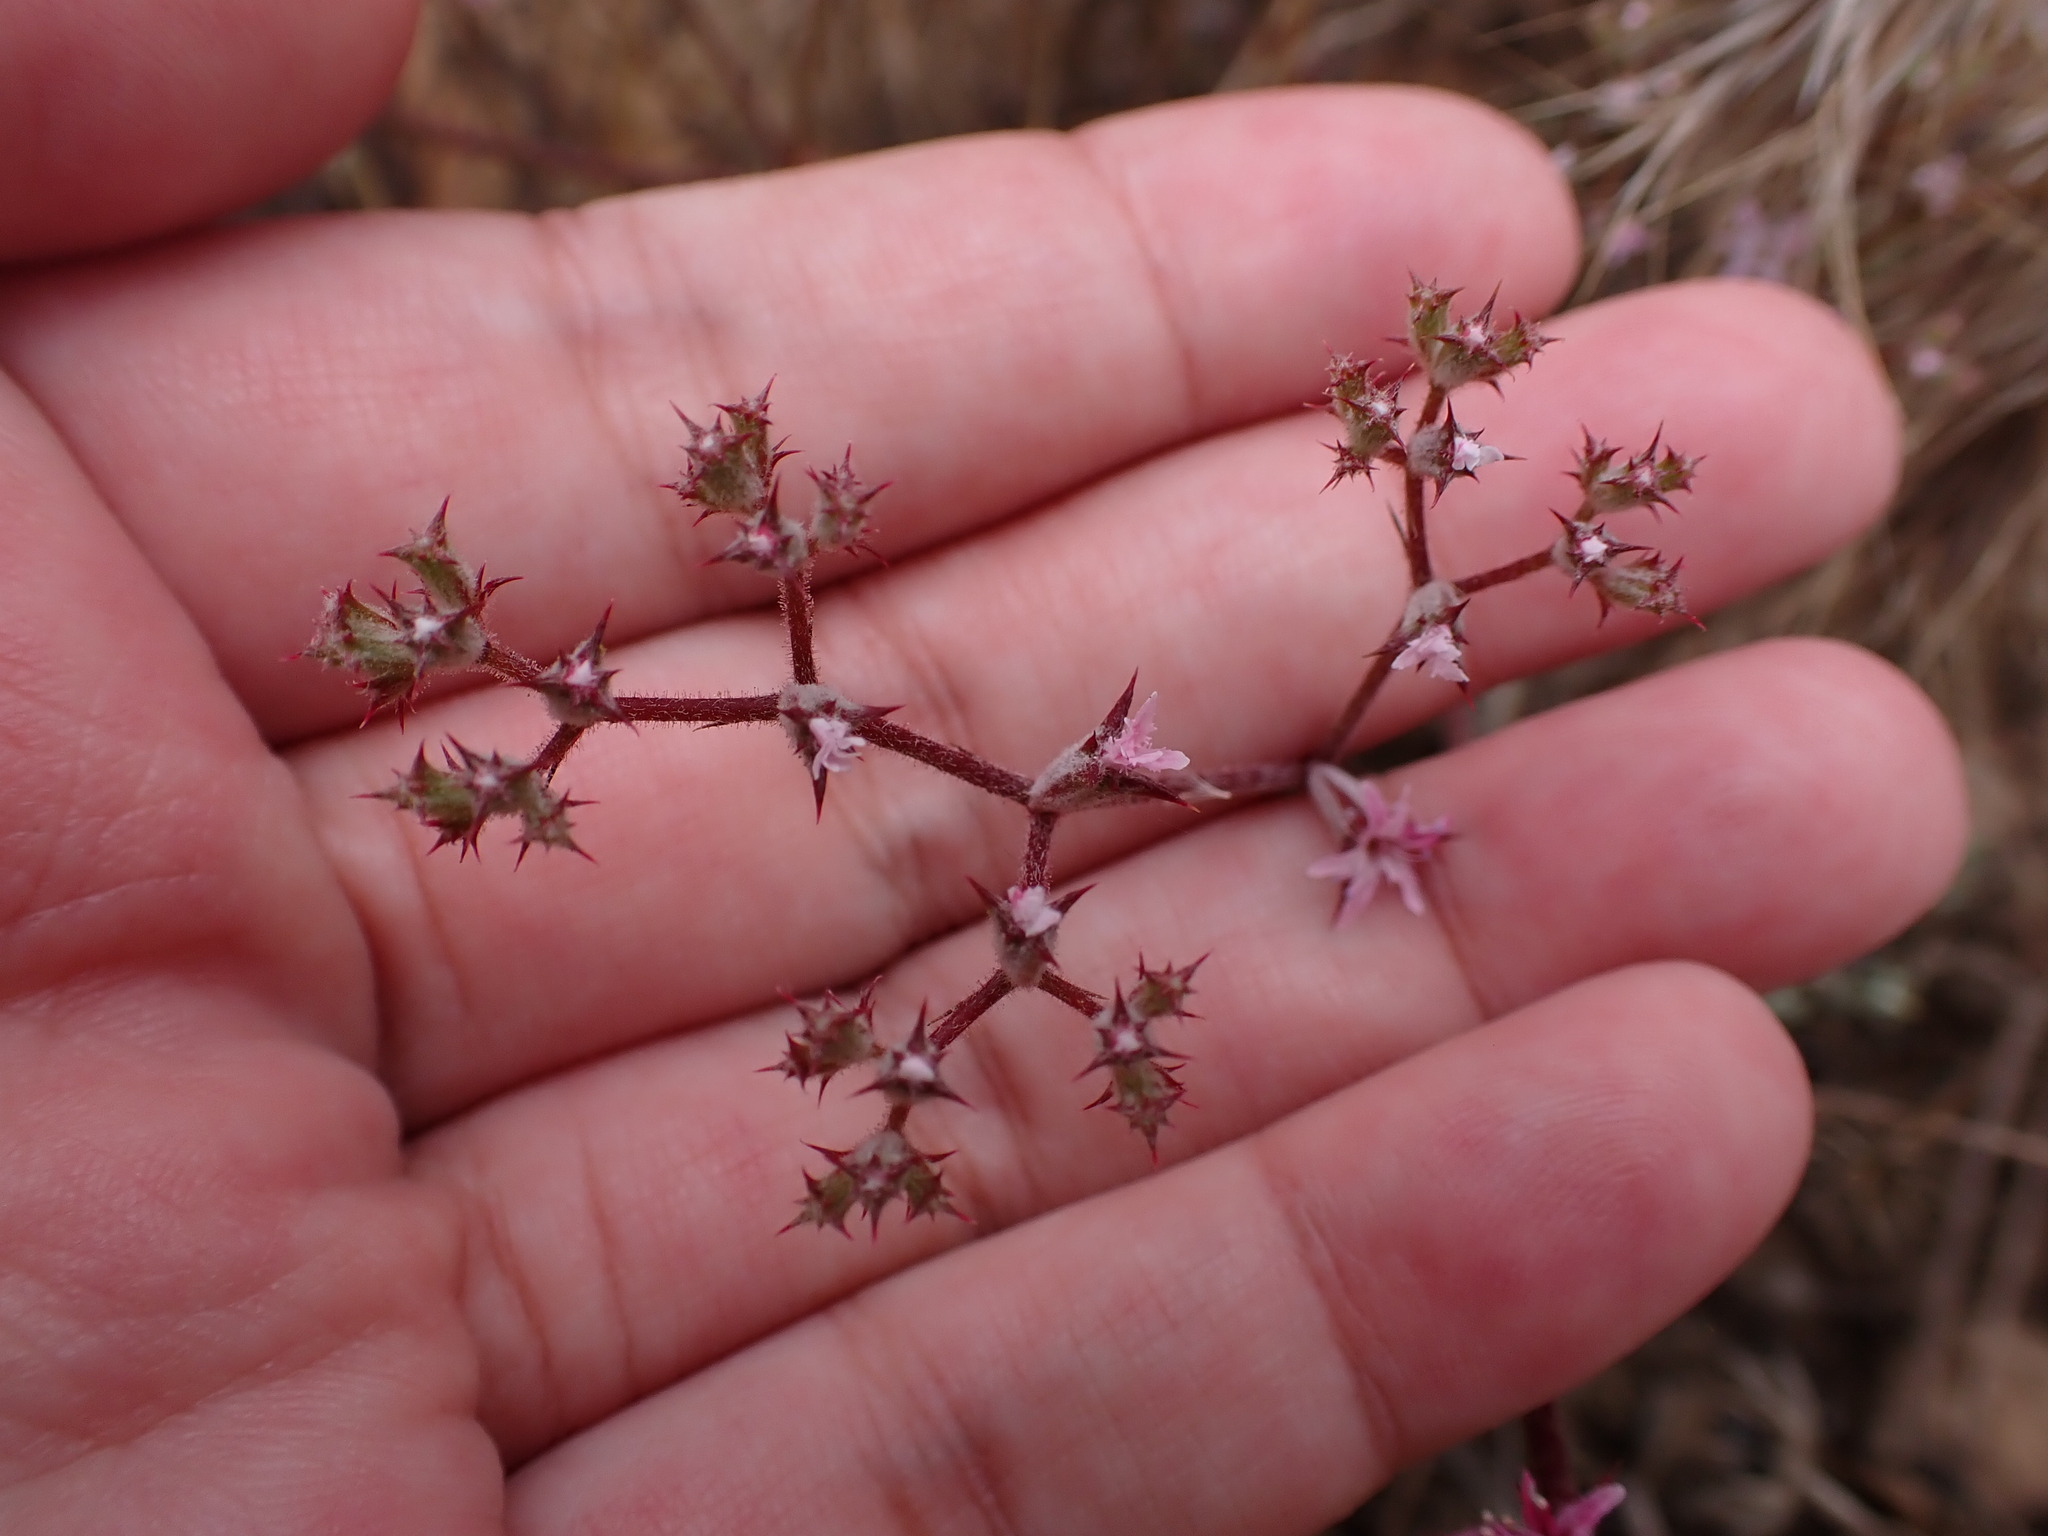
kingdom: Plantae
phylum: Tracheophyta
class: Magnoliopsida
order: Caryophyllales
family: Polygonaceae
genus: Chorizanthe
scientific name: Chorizanthe fimbriata
